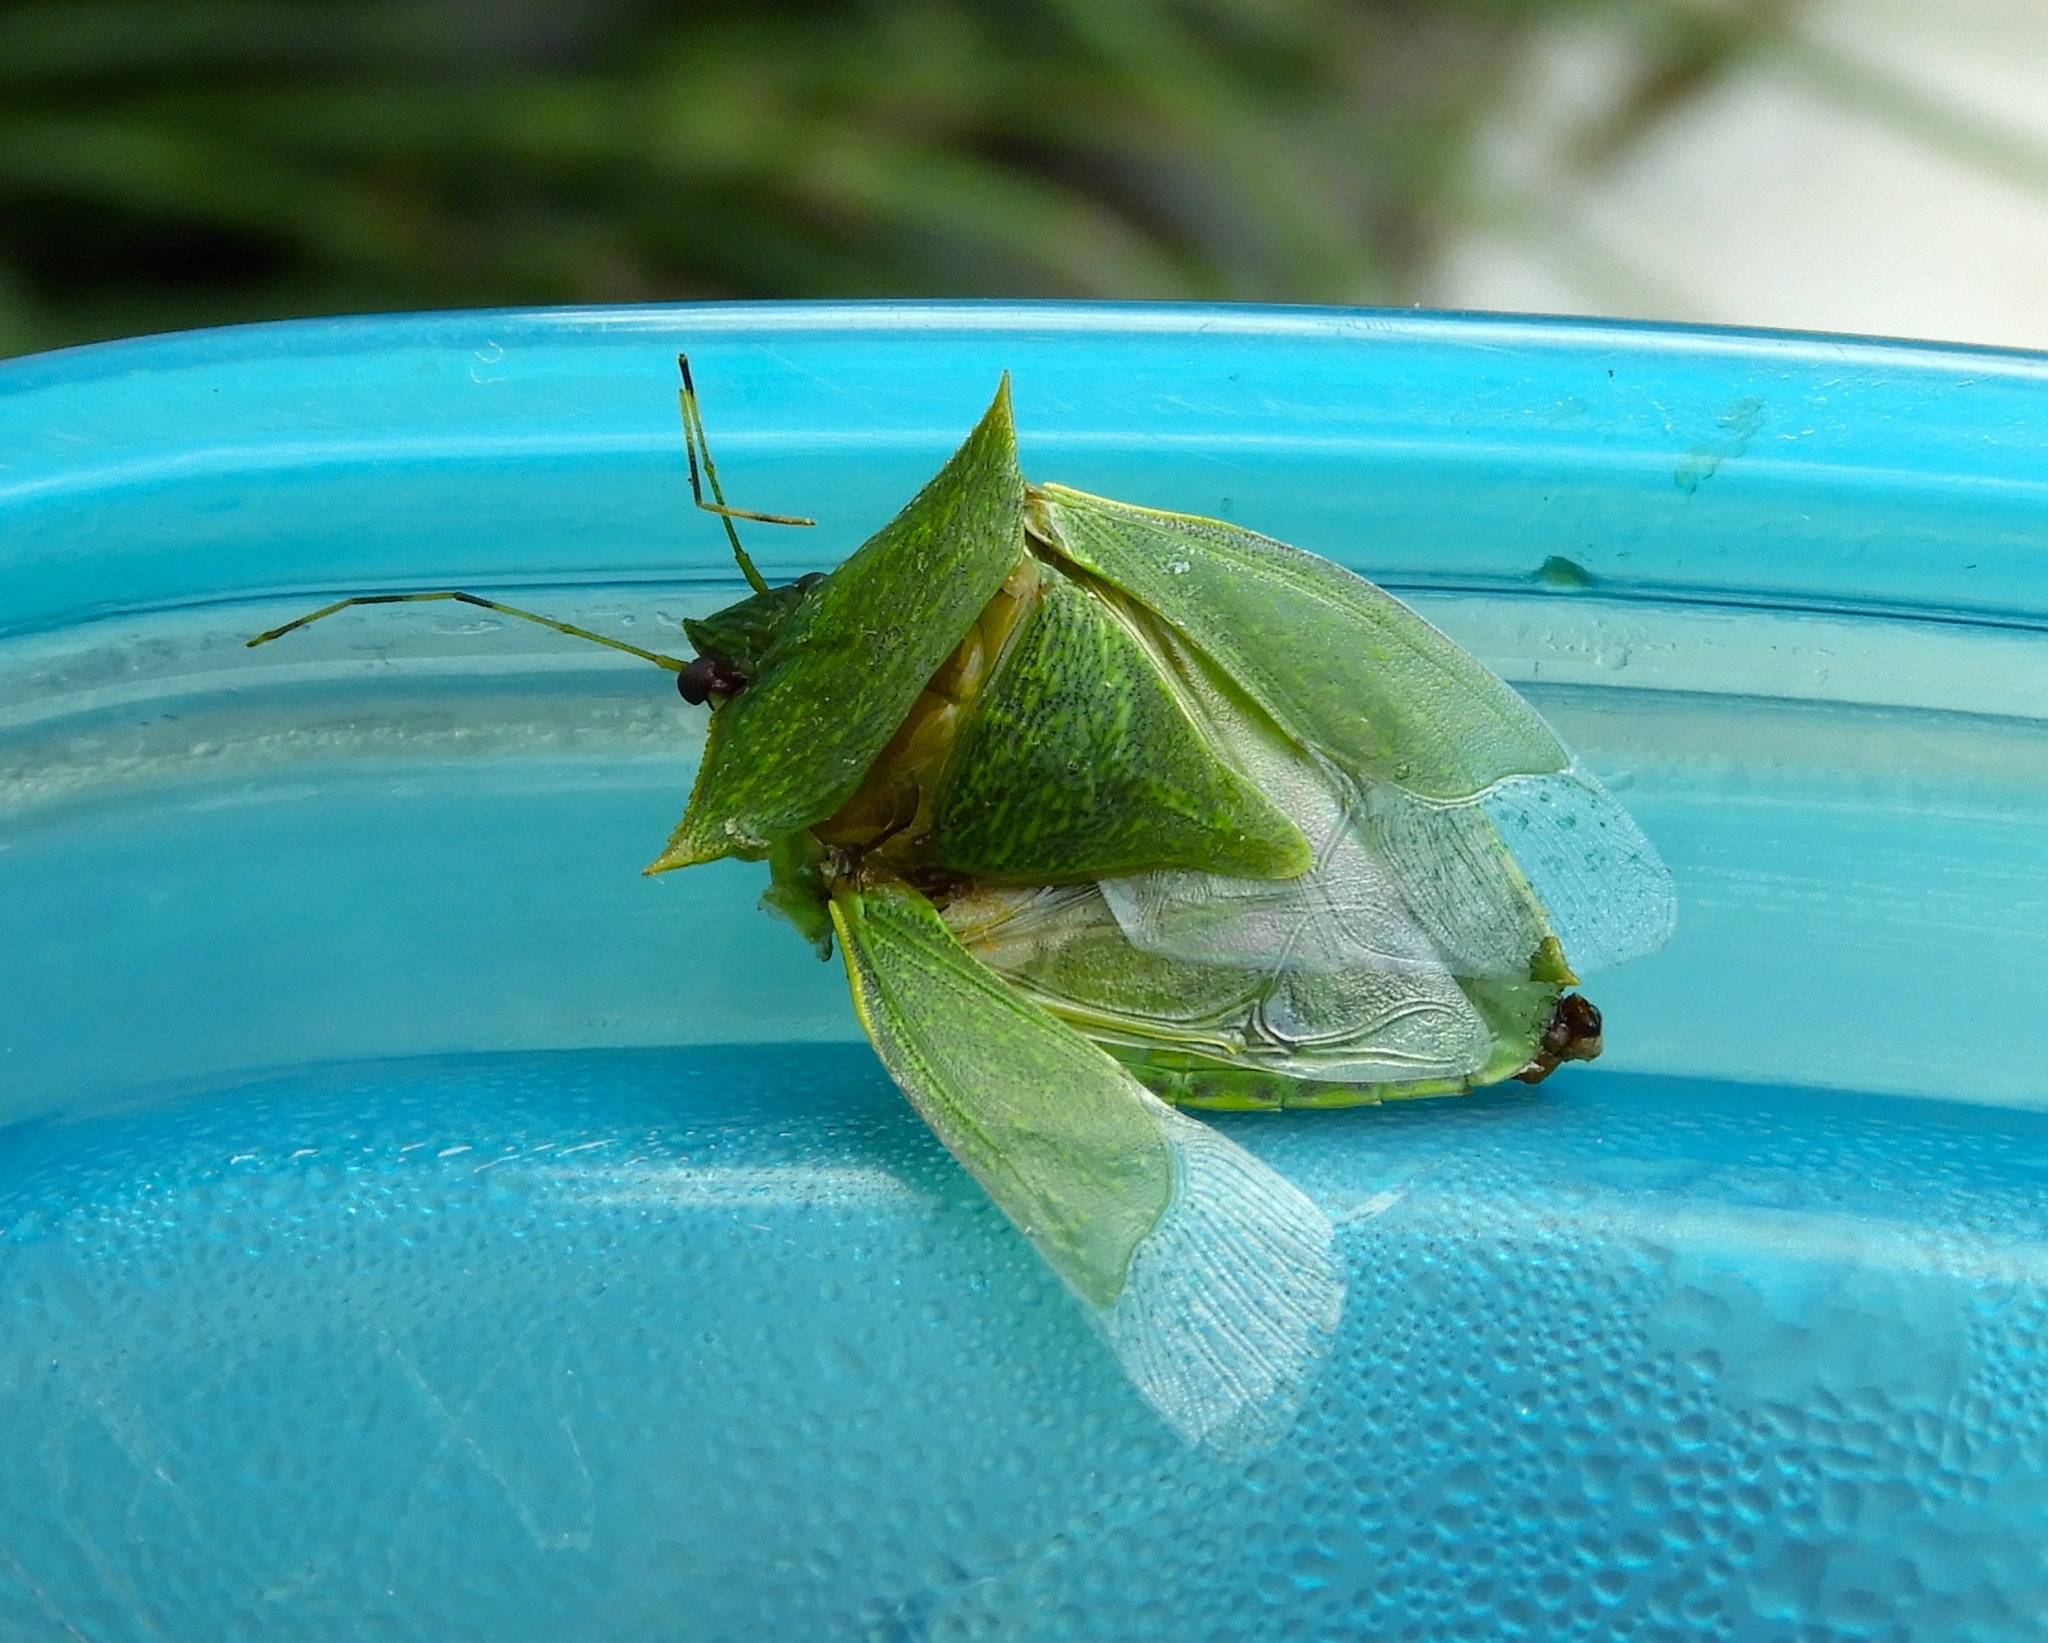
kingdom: Animalia
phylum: Arthropoda
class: Insecta
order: Hemiptera
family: Pentatomidae
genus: Loxa
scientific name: Loxa
